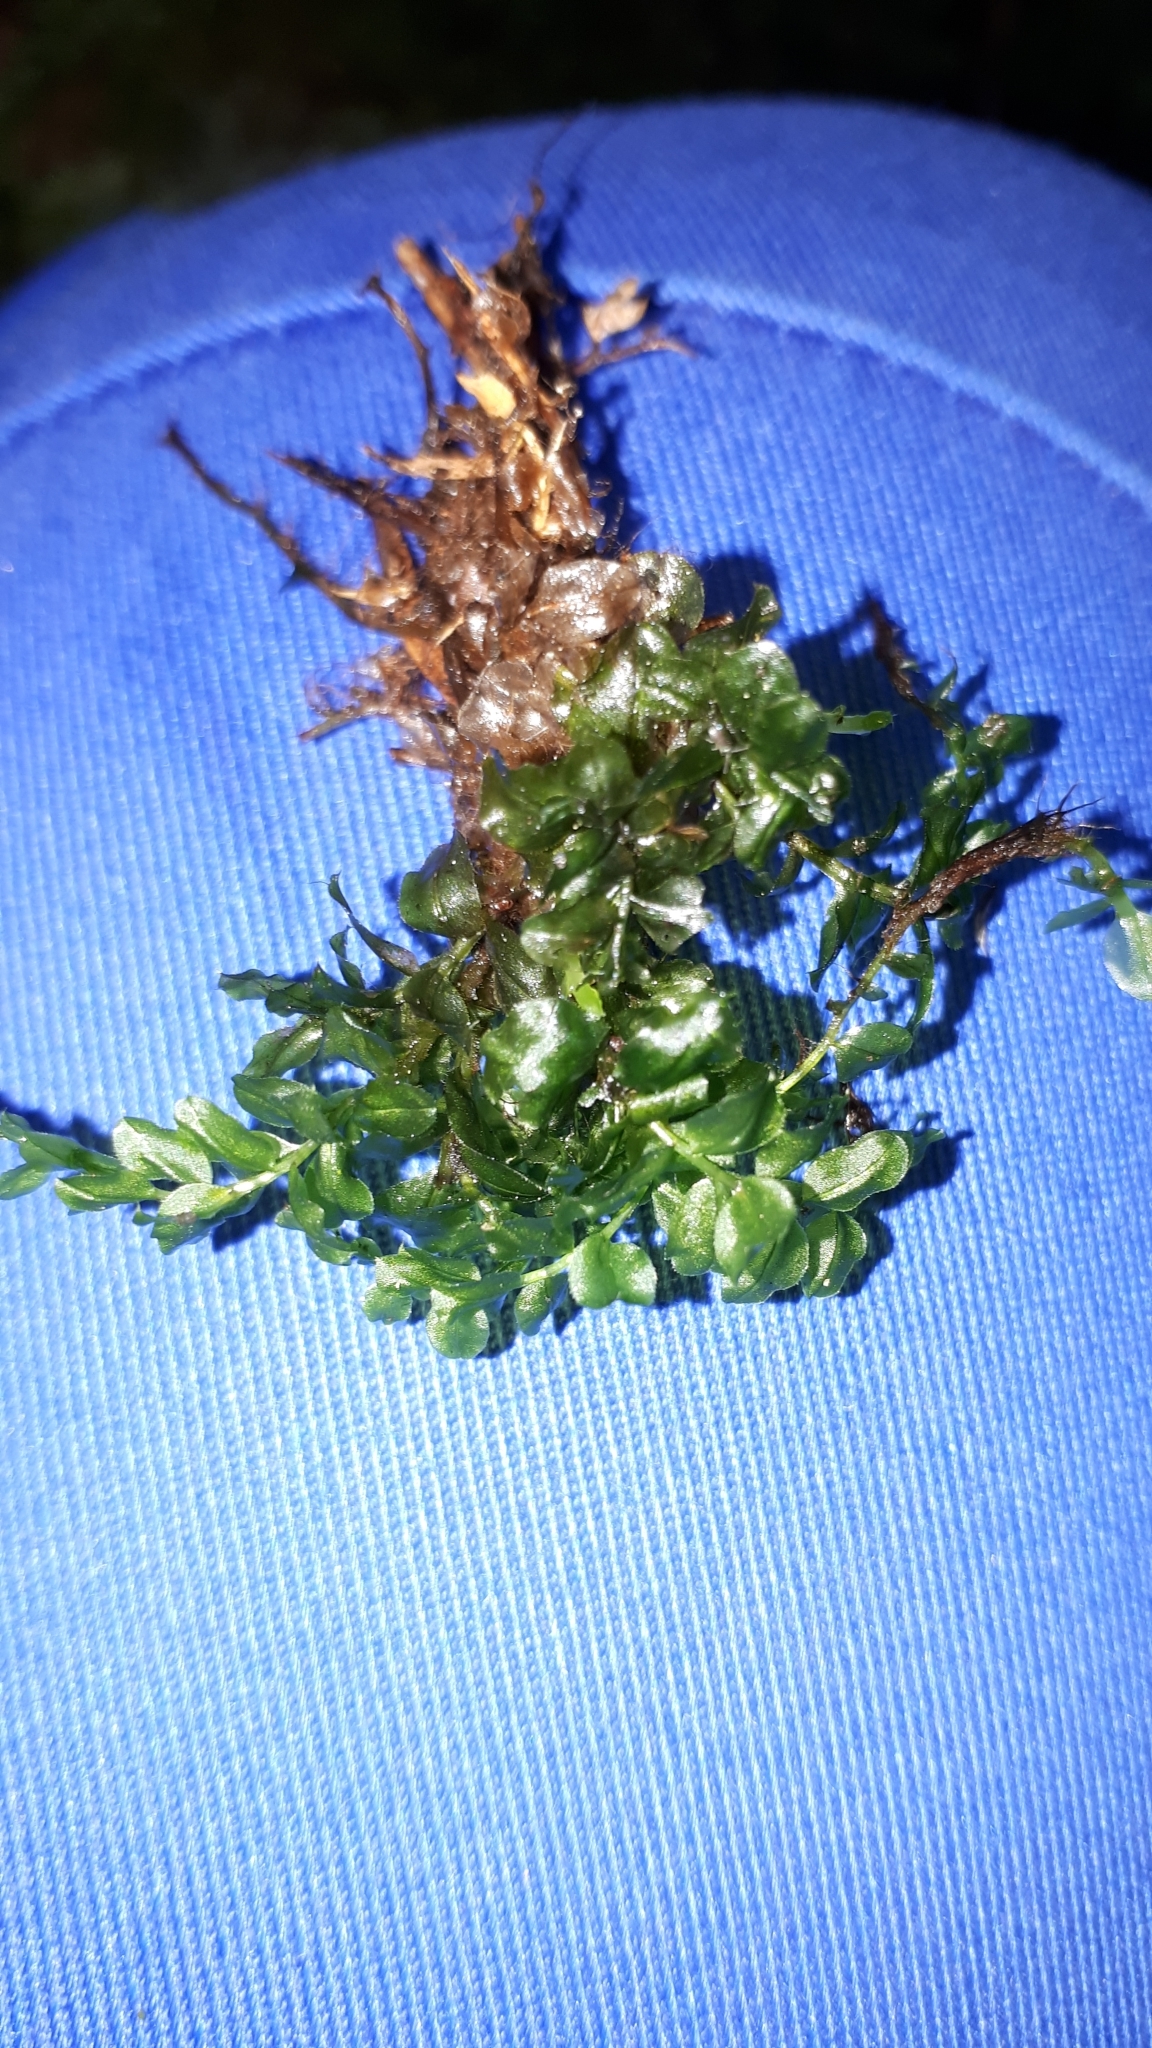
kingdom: Plantae
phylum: Bryophyta
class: Bryopsida
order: Bryales
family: Mniaceae
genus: Plagiomnium
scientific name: Plagiomnium affine
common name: Many-fruited thyme-moss
